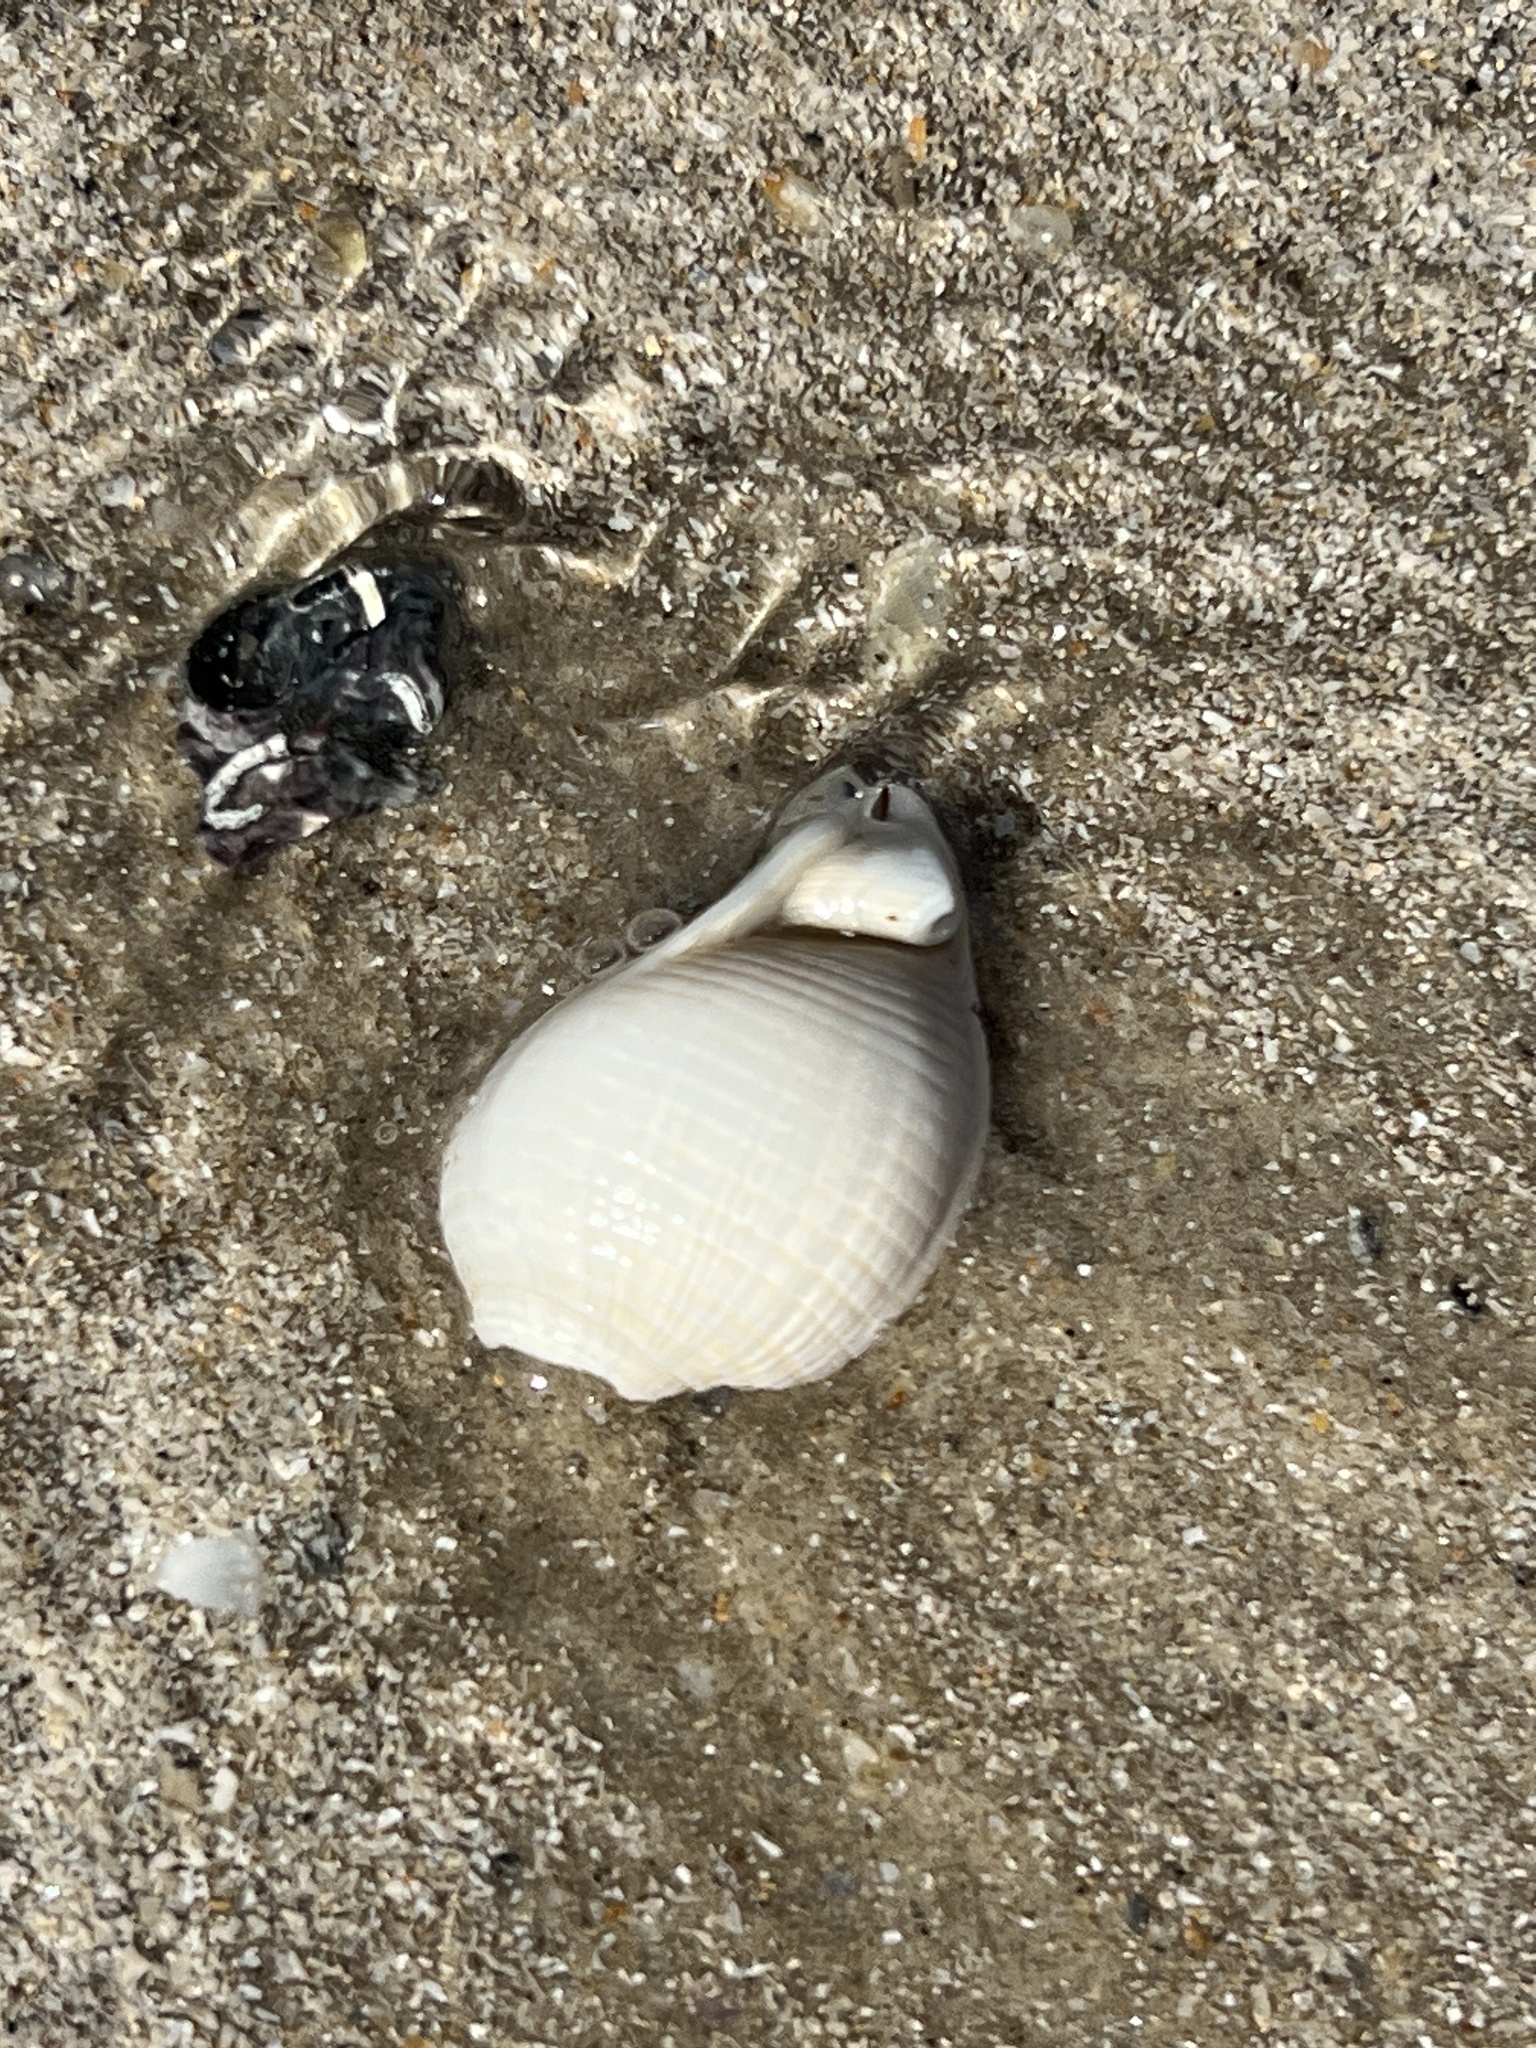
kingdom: Animalia
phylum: Mollusca
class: Gastropoda
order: Littorinimorpha
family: Cassidae
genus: Semicassis
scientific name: Semicassis granulata
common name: Scotch bonnet
